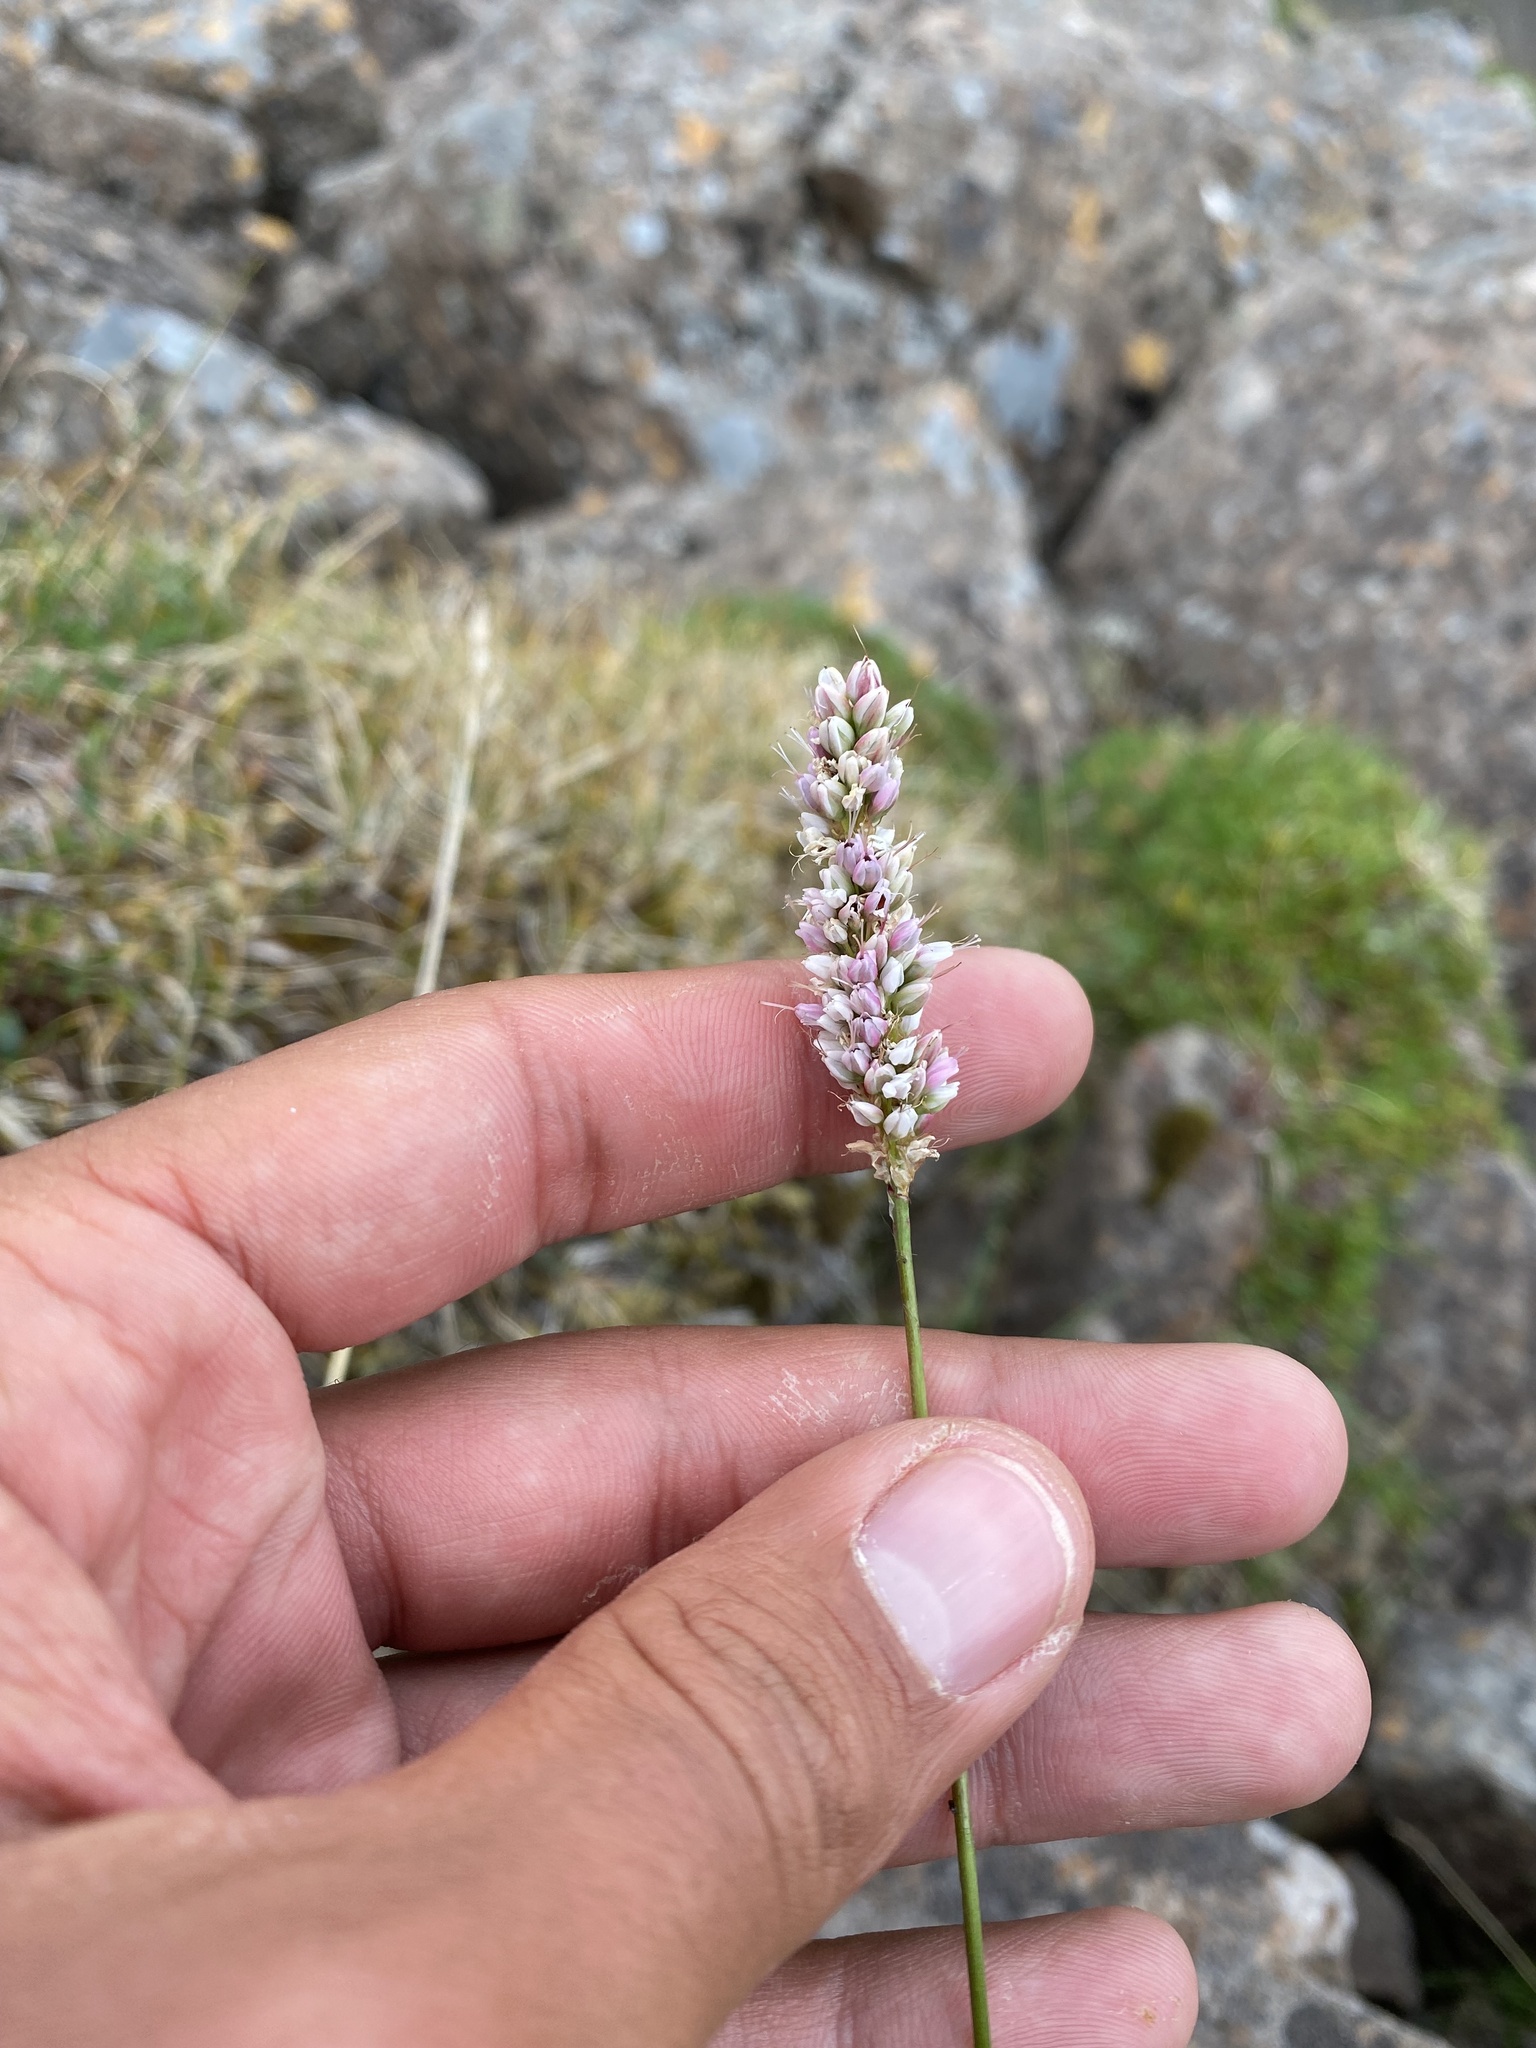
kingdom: Plantae
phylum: Tracheophyta
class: Magnoliopsida
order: Caryophyllales
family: Polygonaceae
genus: Bistorta
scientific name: Bistorta elliptica
